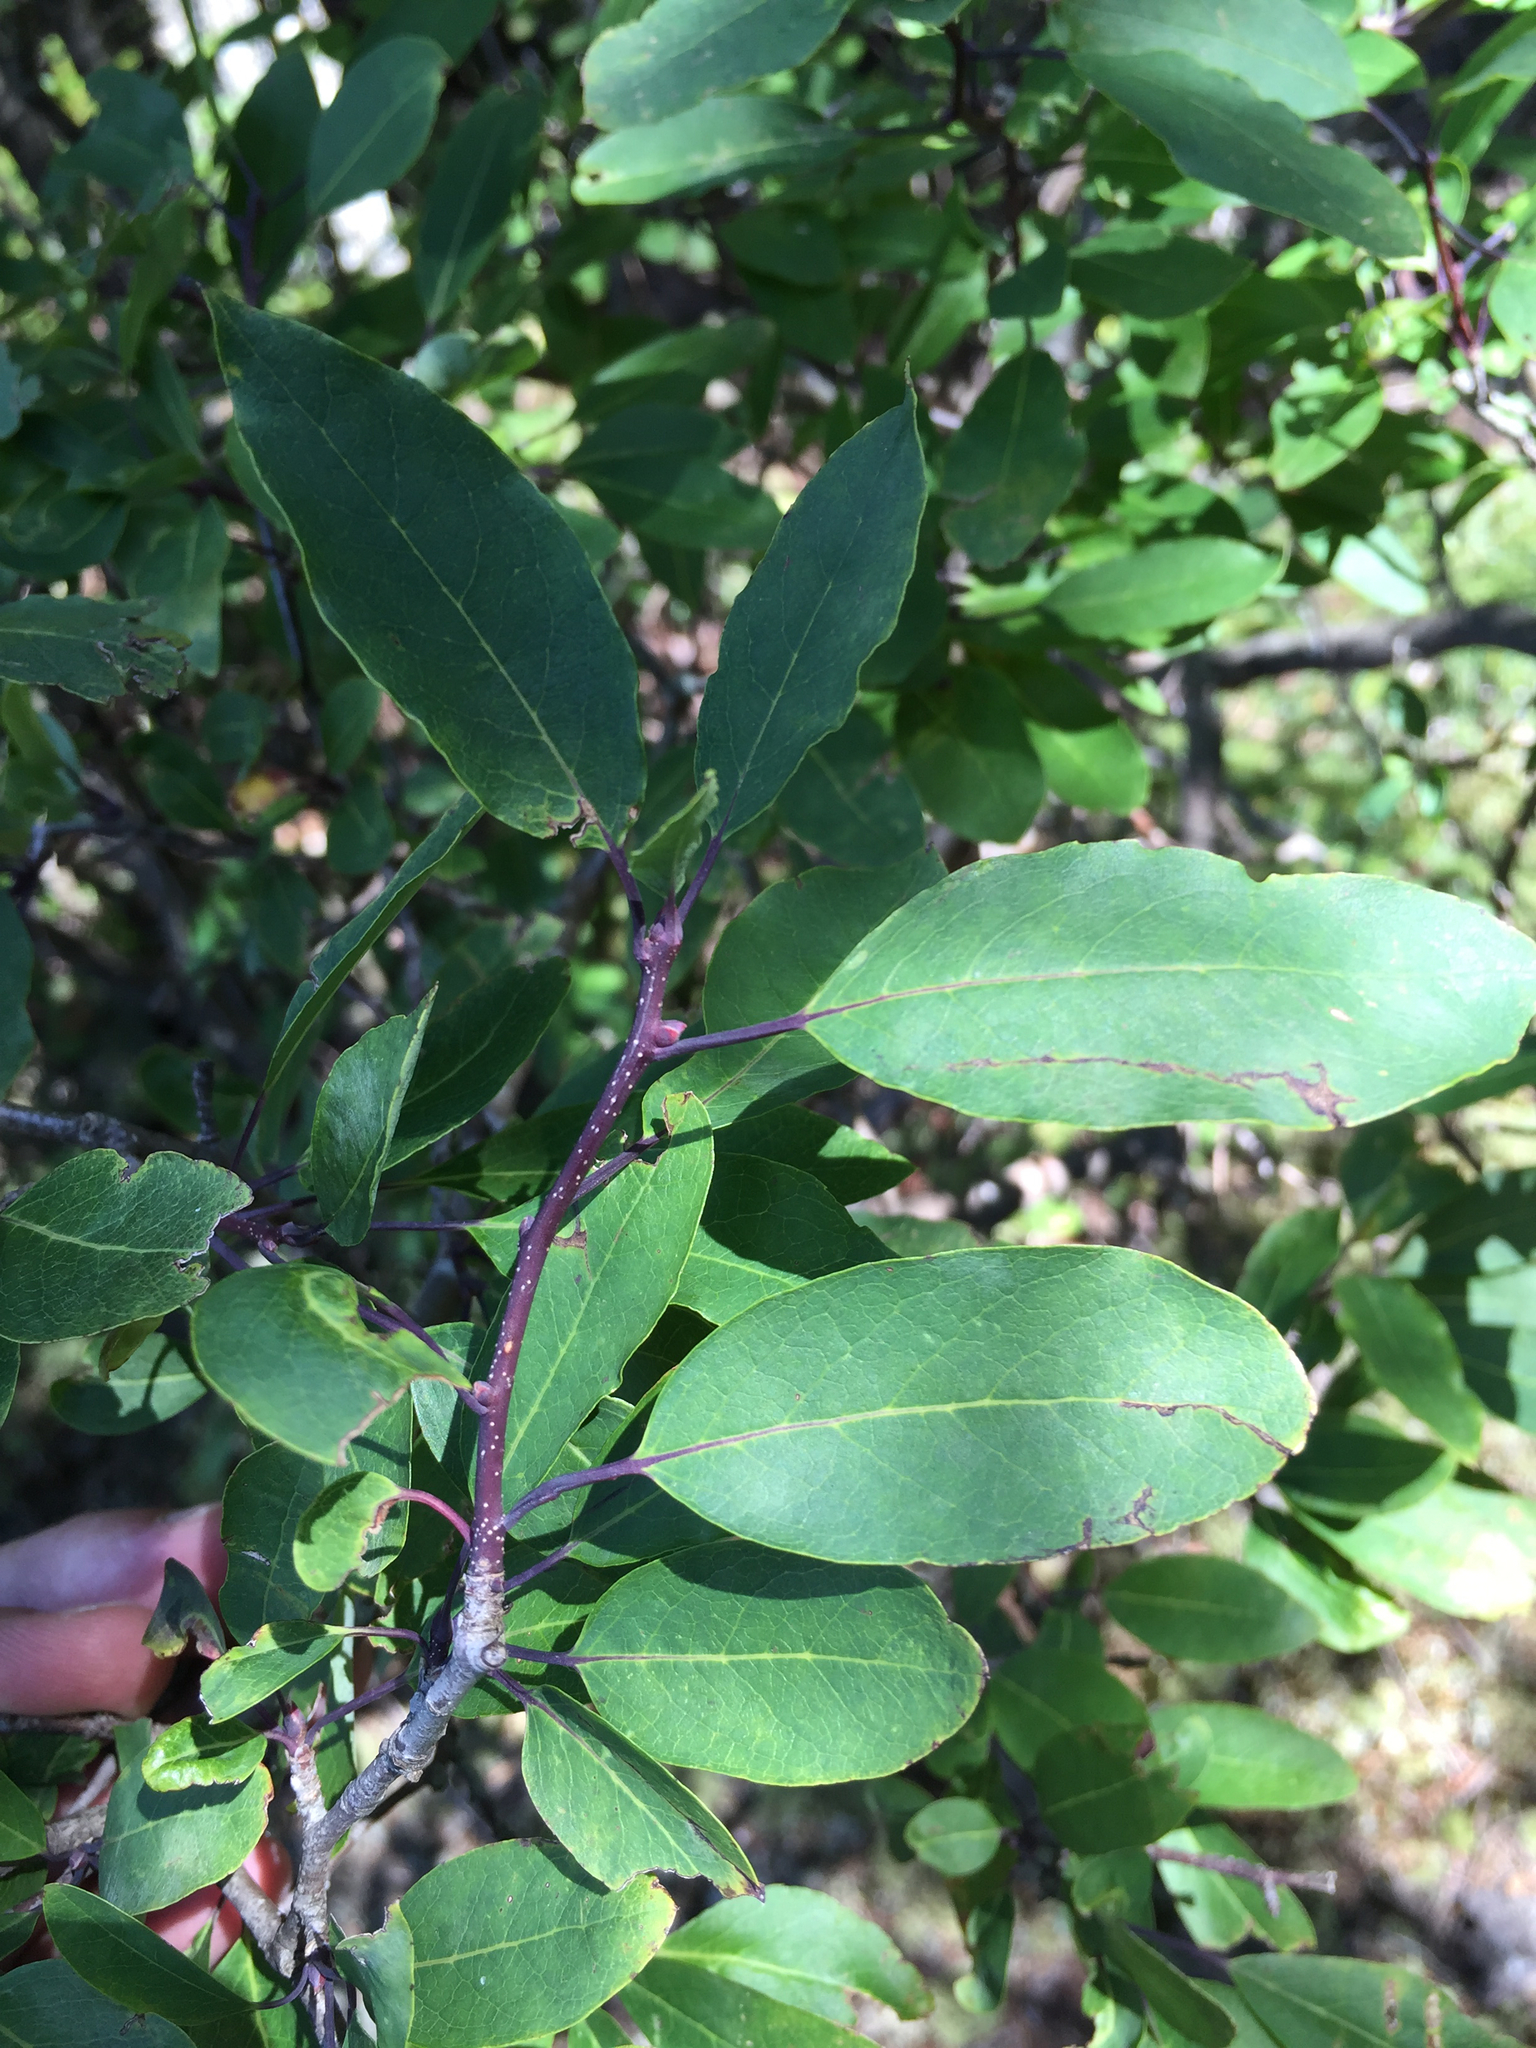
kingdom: Plantae
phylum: Tracheophyta
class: Magnoliopsida
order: Aquifoliales
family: Aquifoliaceae
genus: Ilex
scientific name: Ilex mucronata
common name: Catberry
